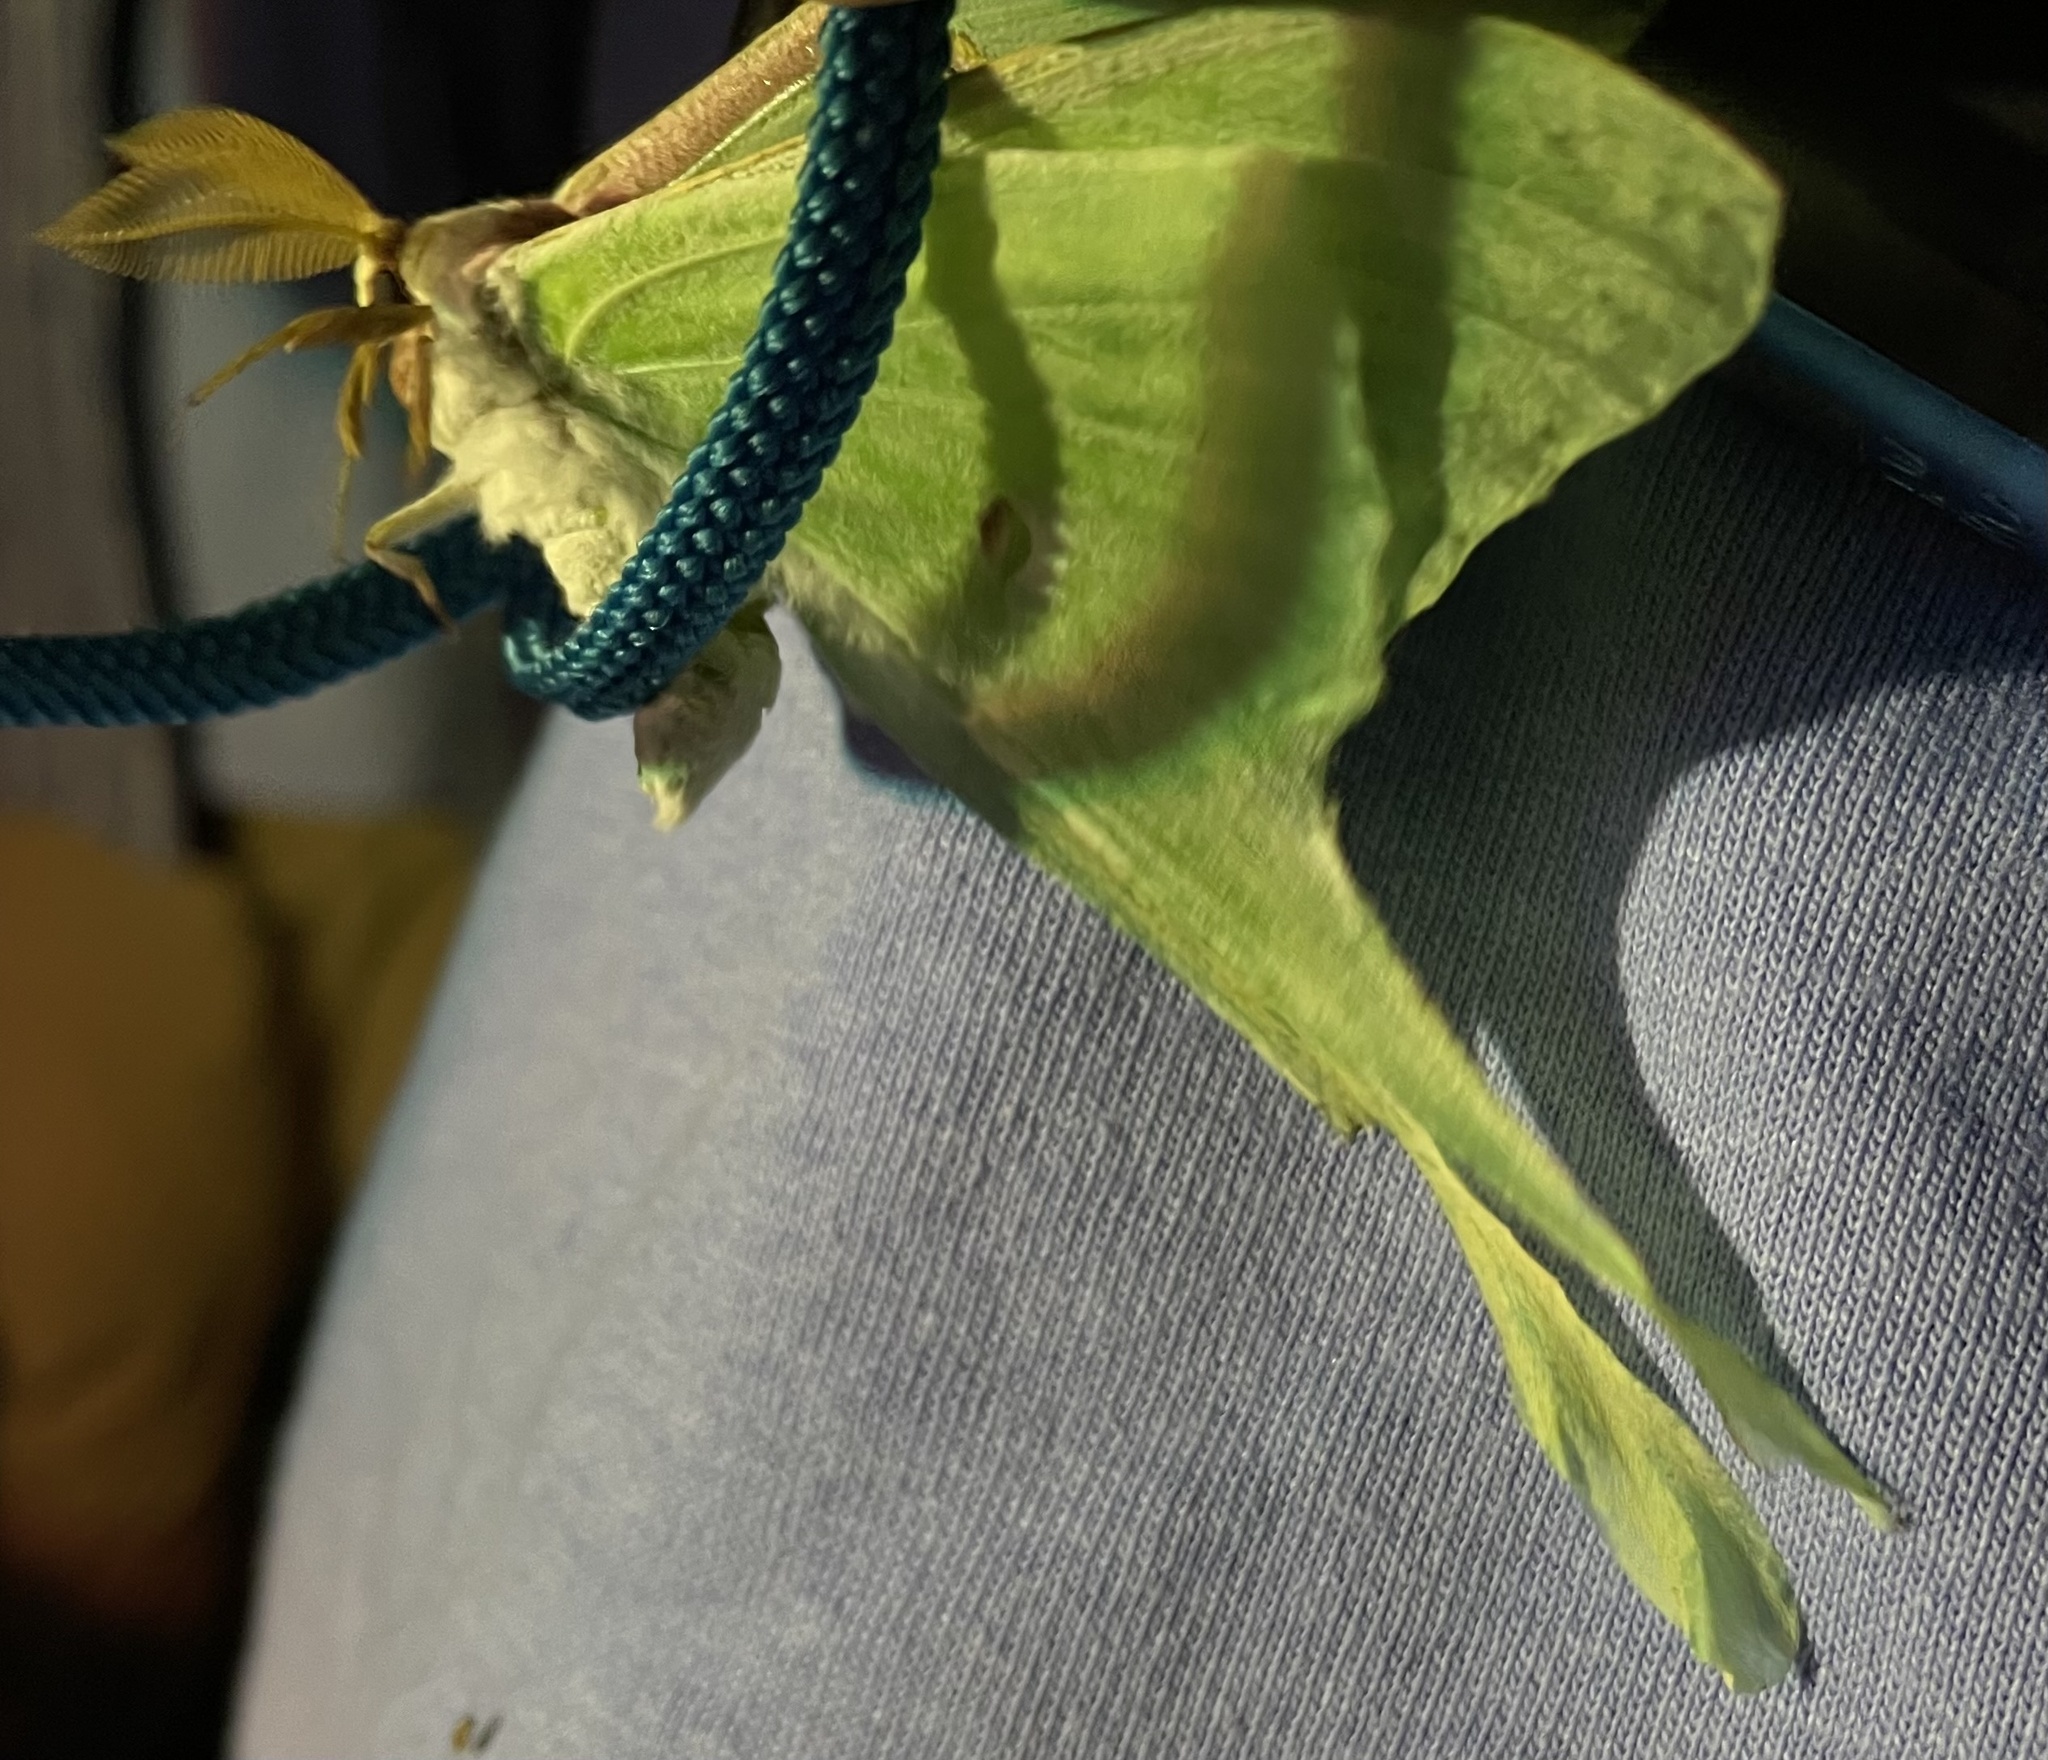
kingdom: Animalia
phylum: Arthropoda
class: Insecta
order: Lepidoptera
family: Saturniidae
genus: Actias
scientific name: Actias luna
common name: Luna moth
